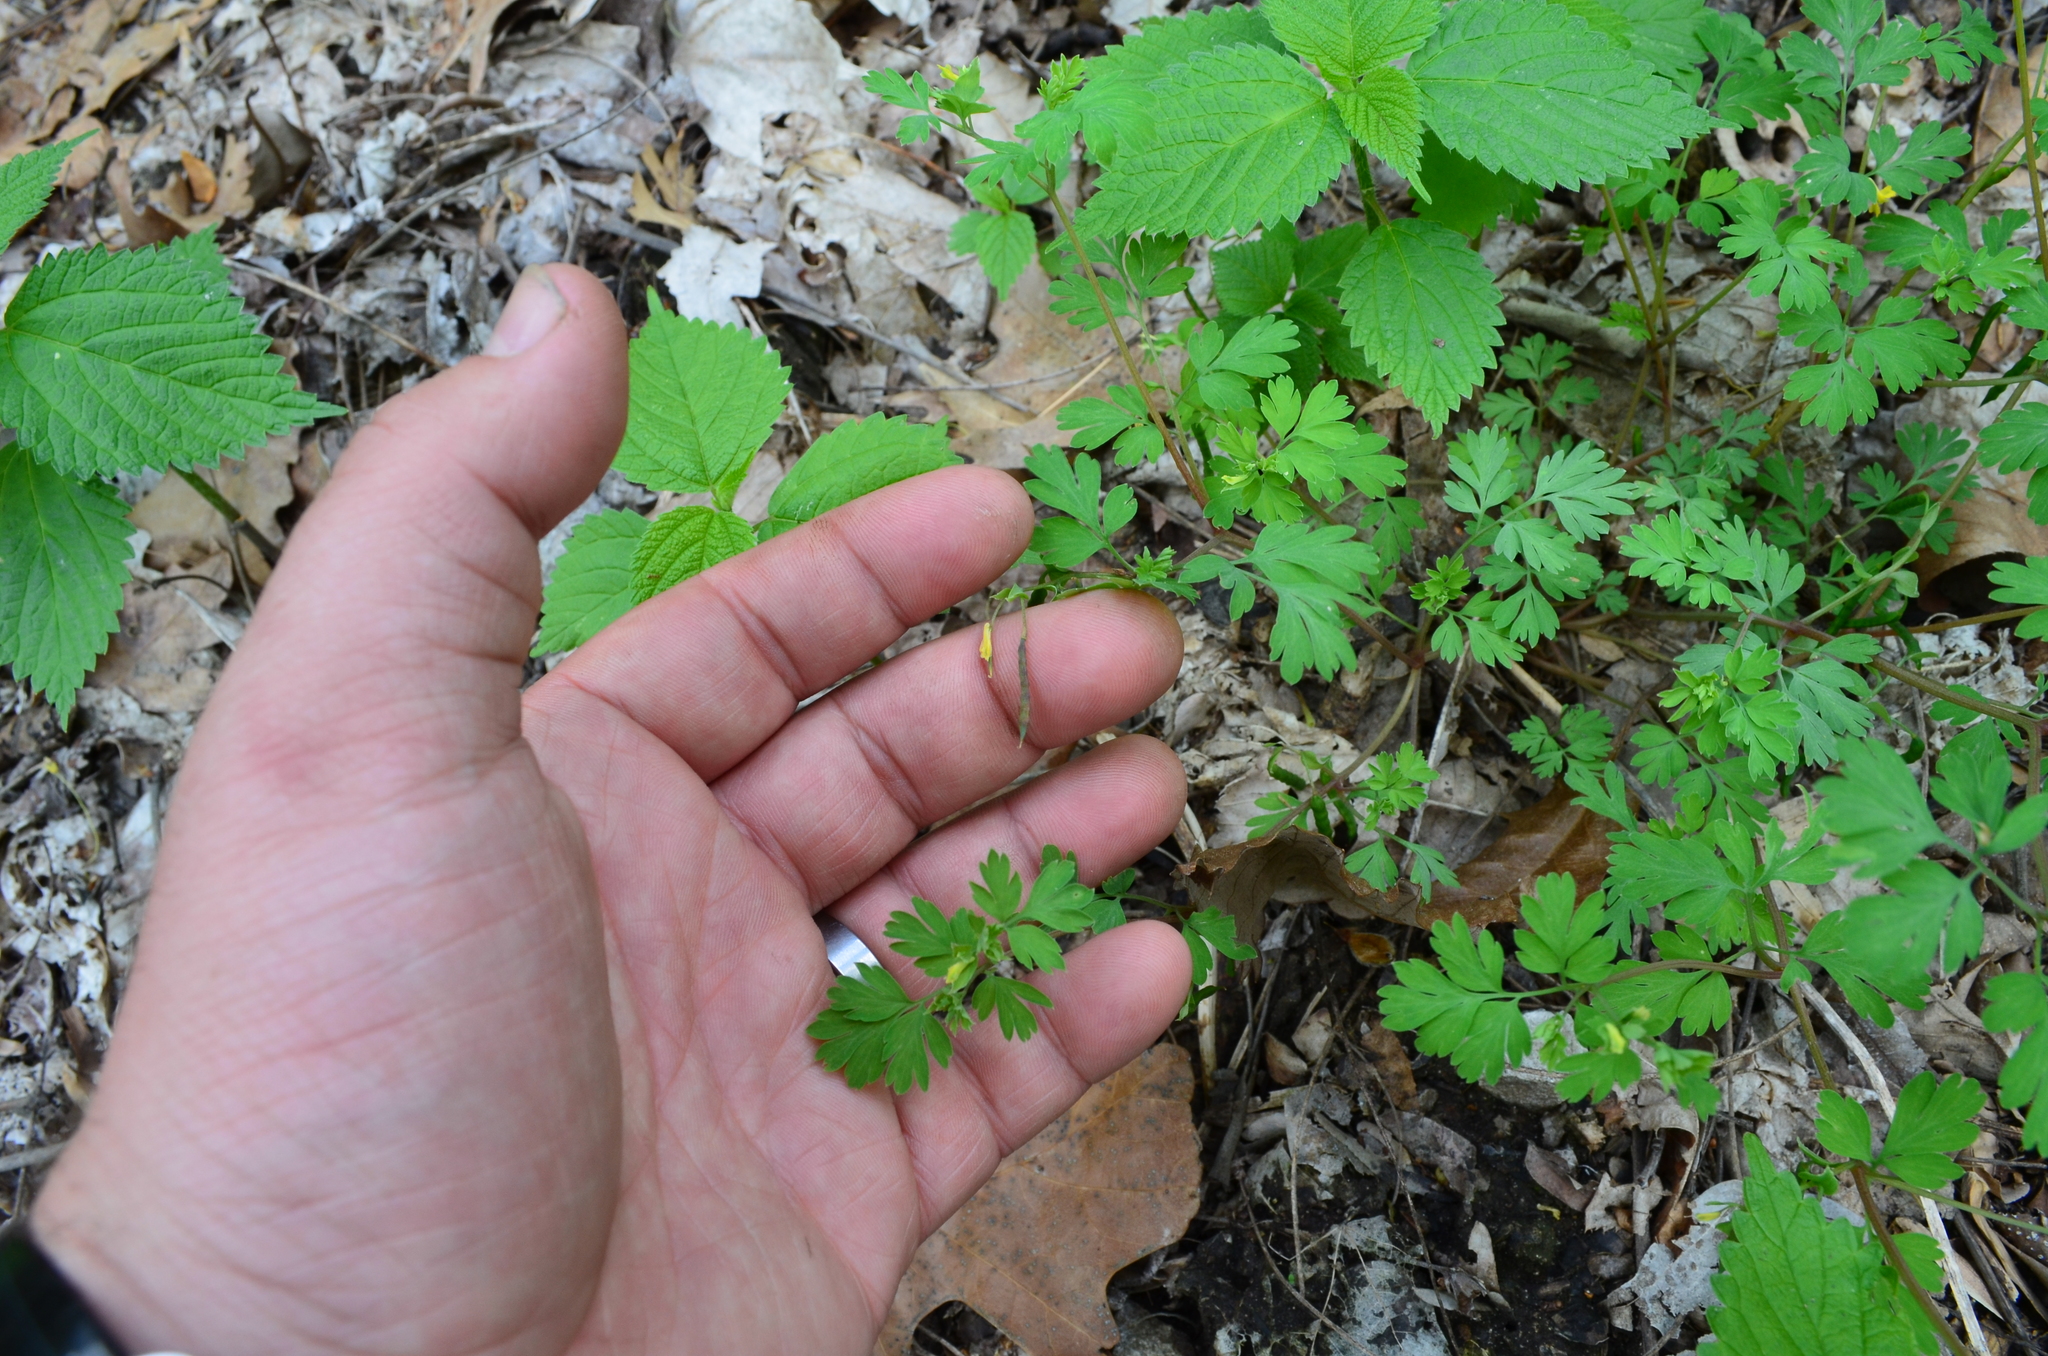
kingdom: Plantae
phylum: Tracheophyta
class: Magnoliopsida
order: Ranunculales
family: Papaveraceae
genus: Corydalis
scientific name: Corydalis flavula
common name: Yellow corydalis
